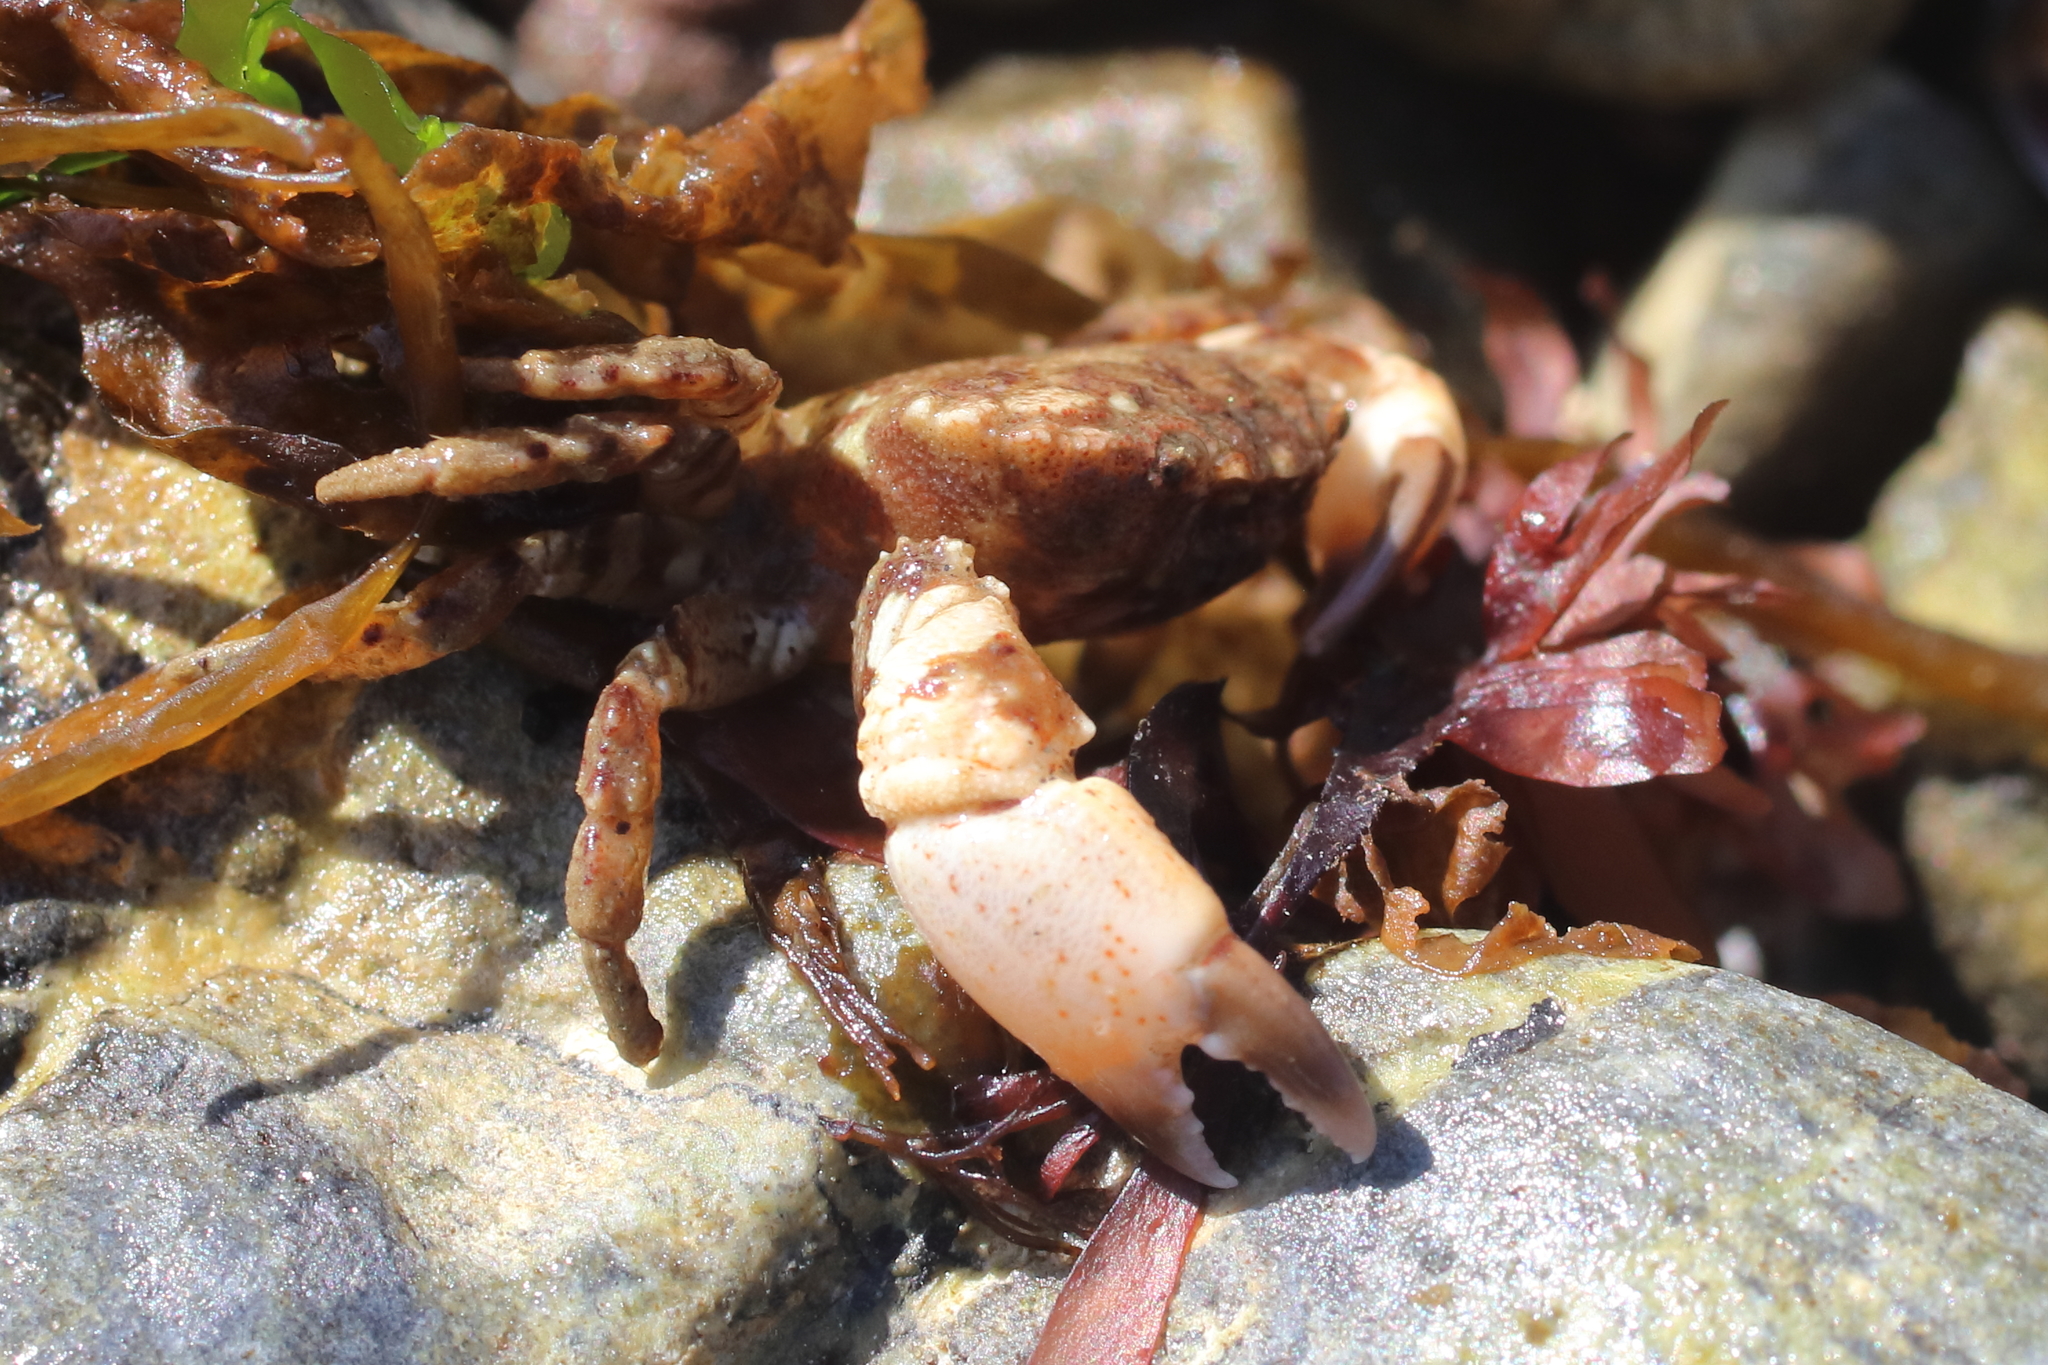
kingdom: Animalia
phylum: Arthropoda
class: Malacostraca
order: Decapoda
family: Panopeidae
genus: Lophopanopeus
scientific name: Lophopanopeus bellus
